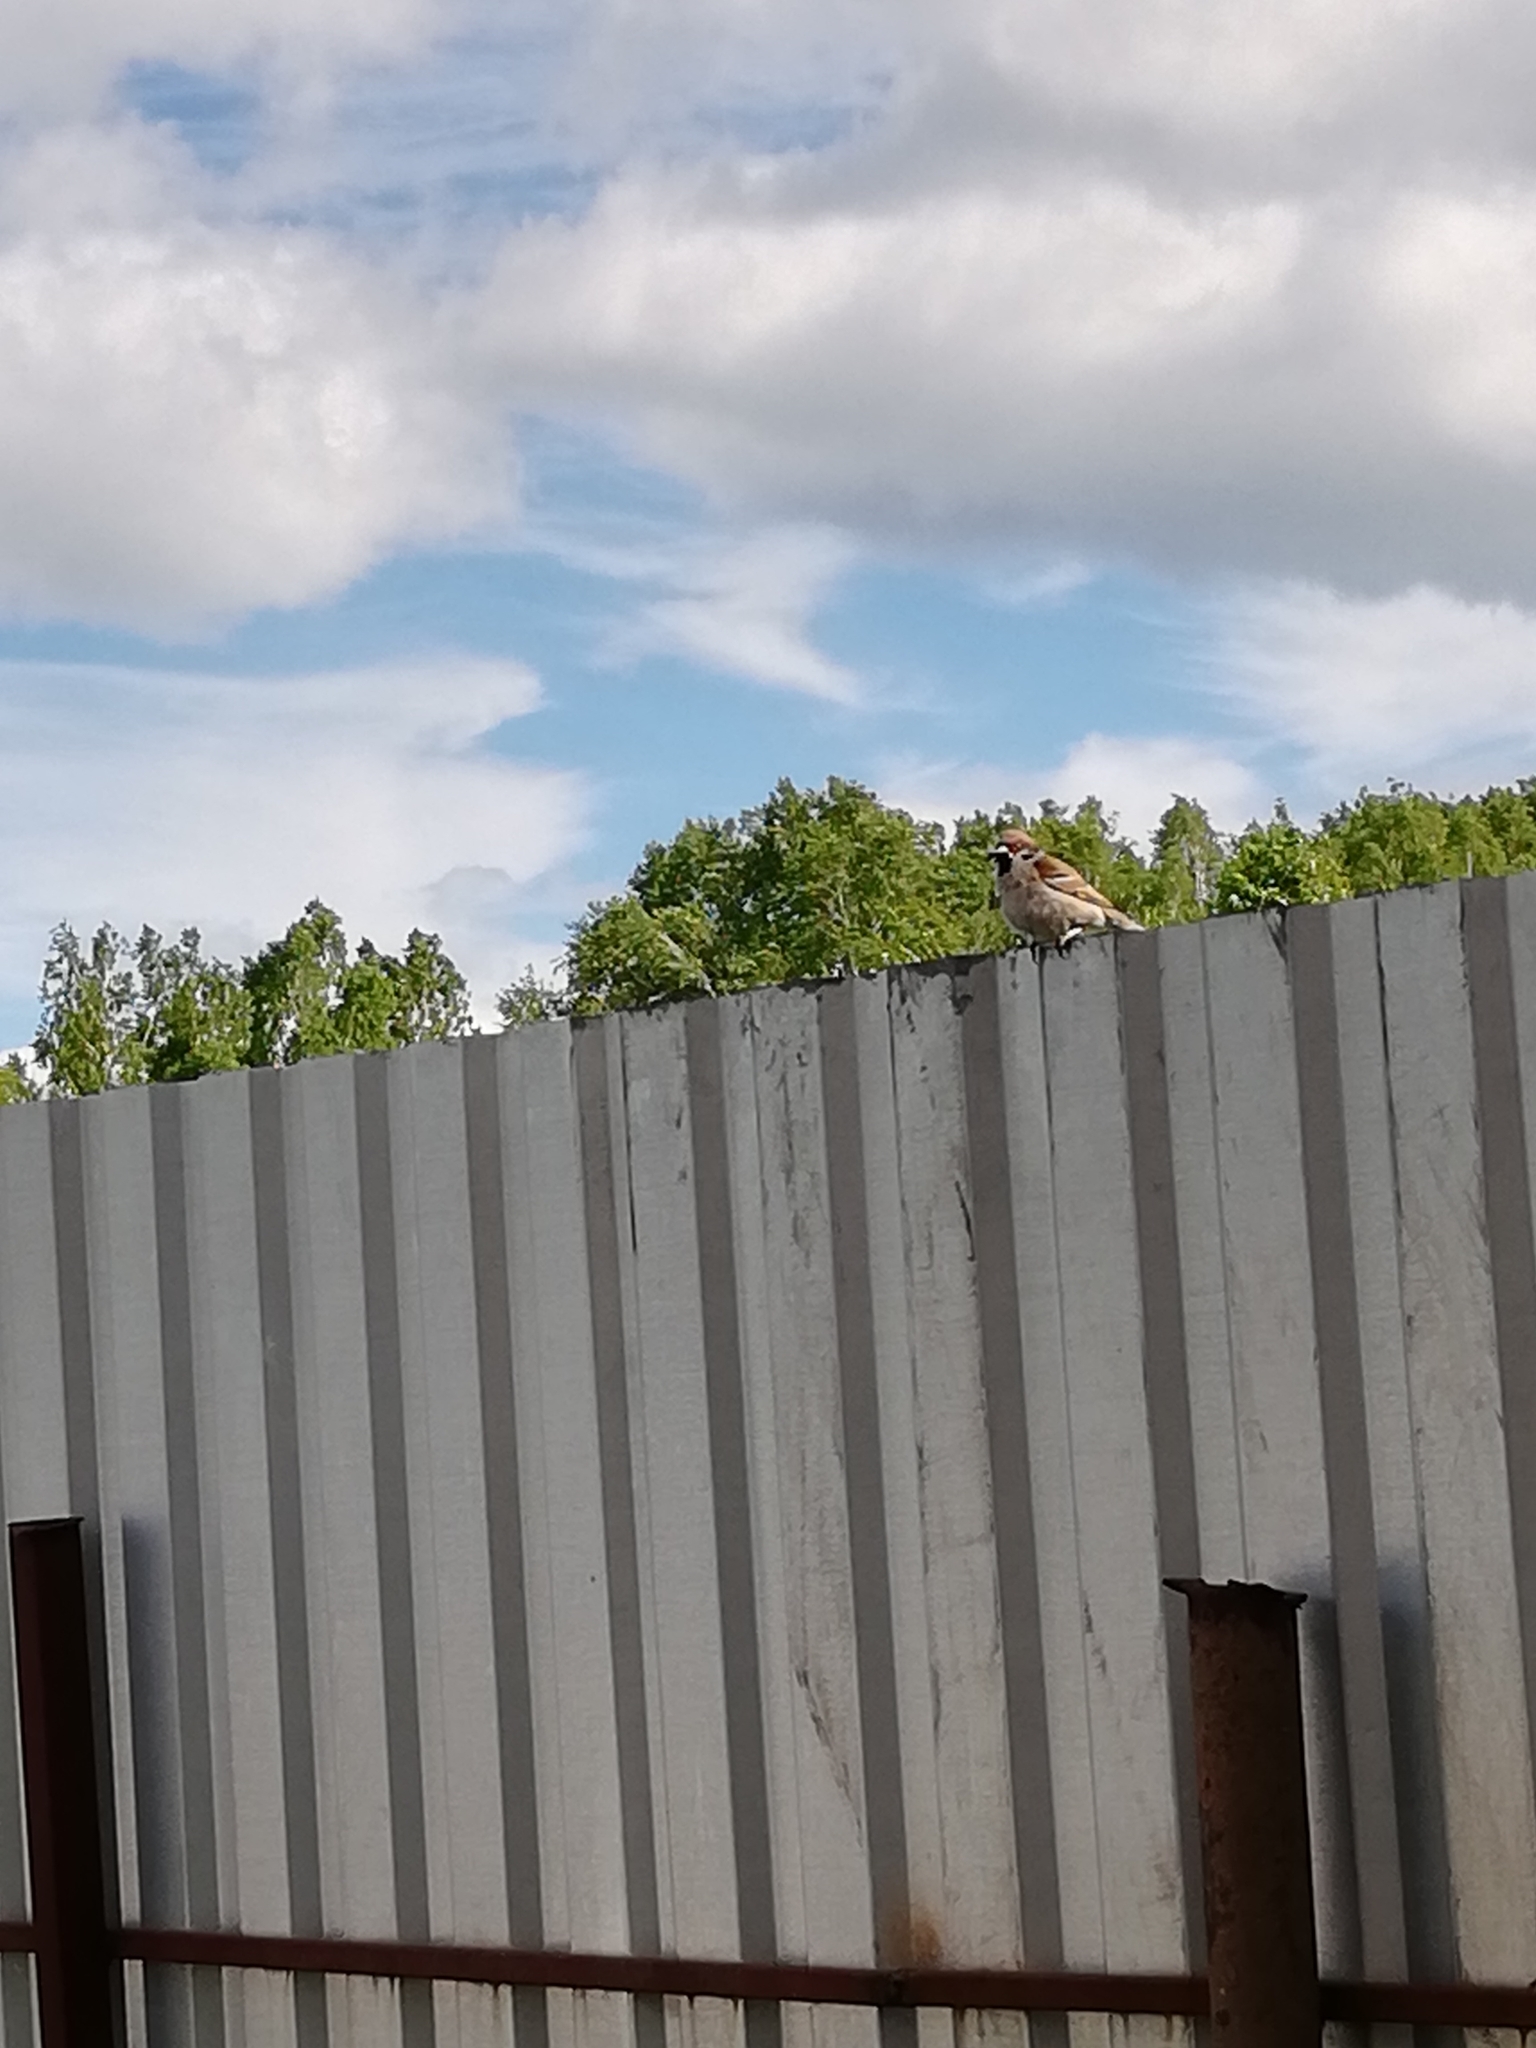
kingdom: Animalia
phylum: Chordata
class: Aves
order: Passeriformes
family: Passeridae
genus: Passer
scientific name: Passer domesticus
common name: House sparrow
